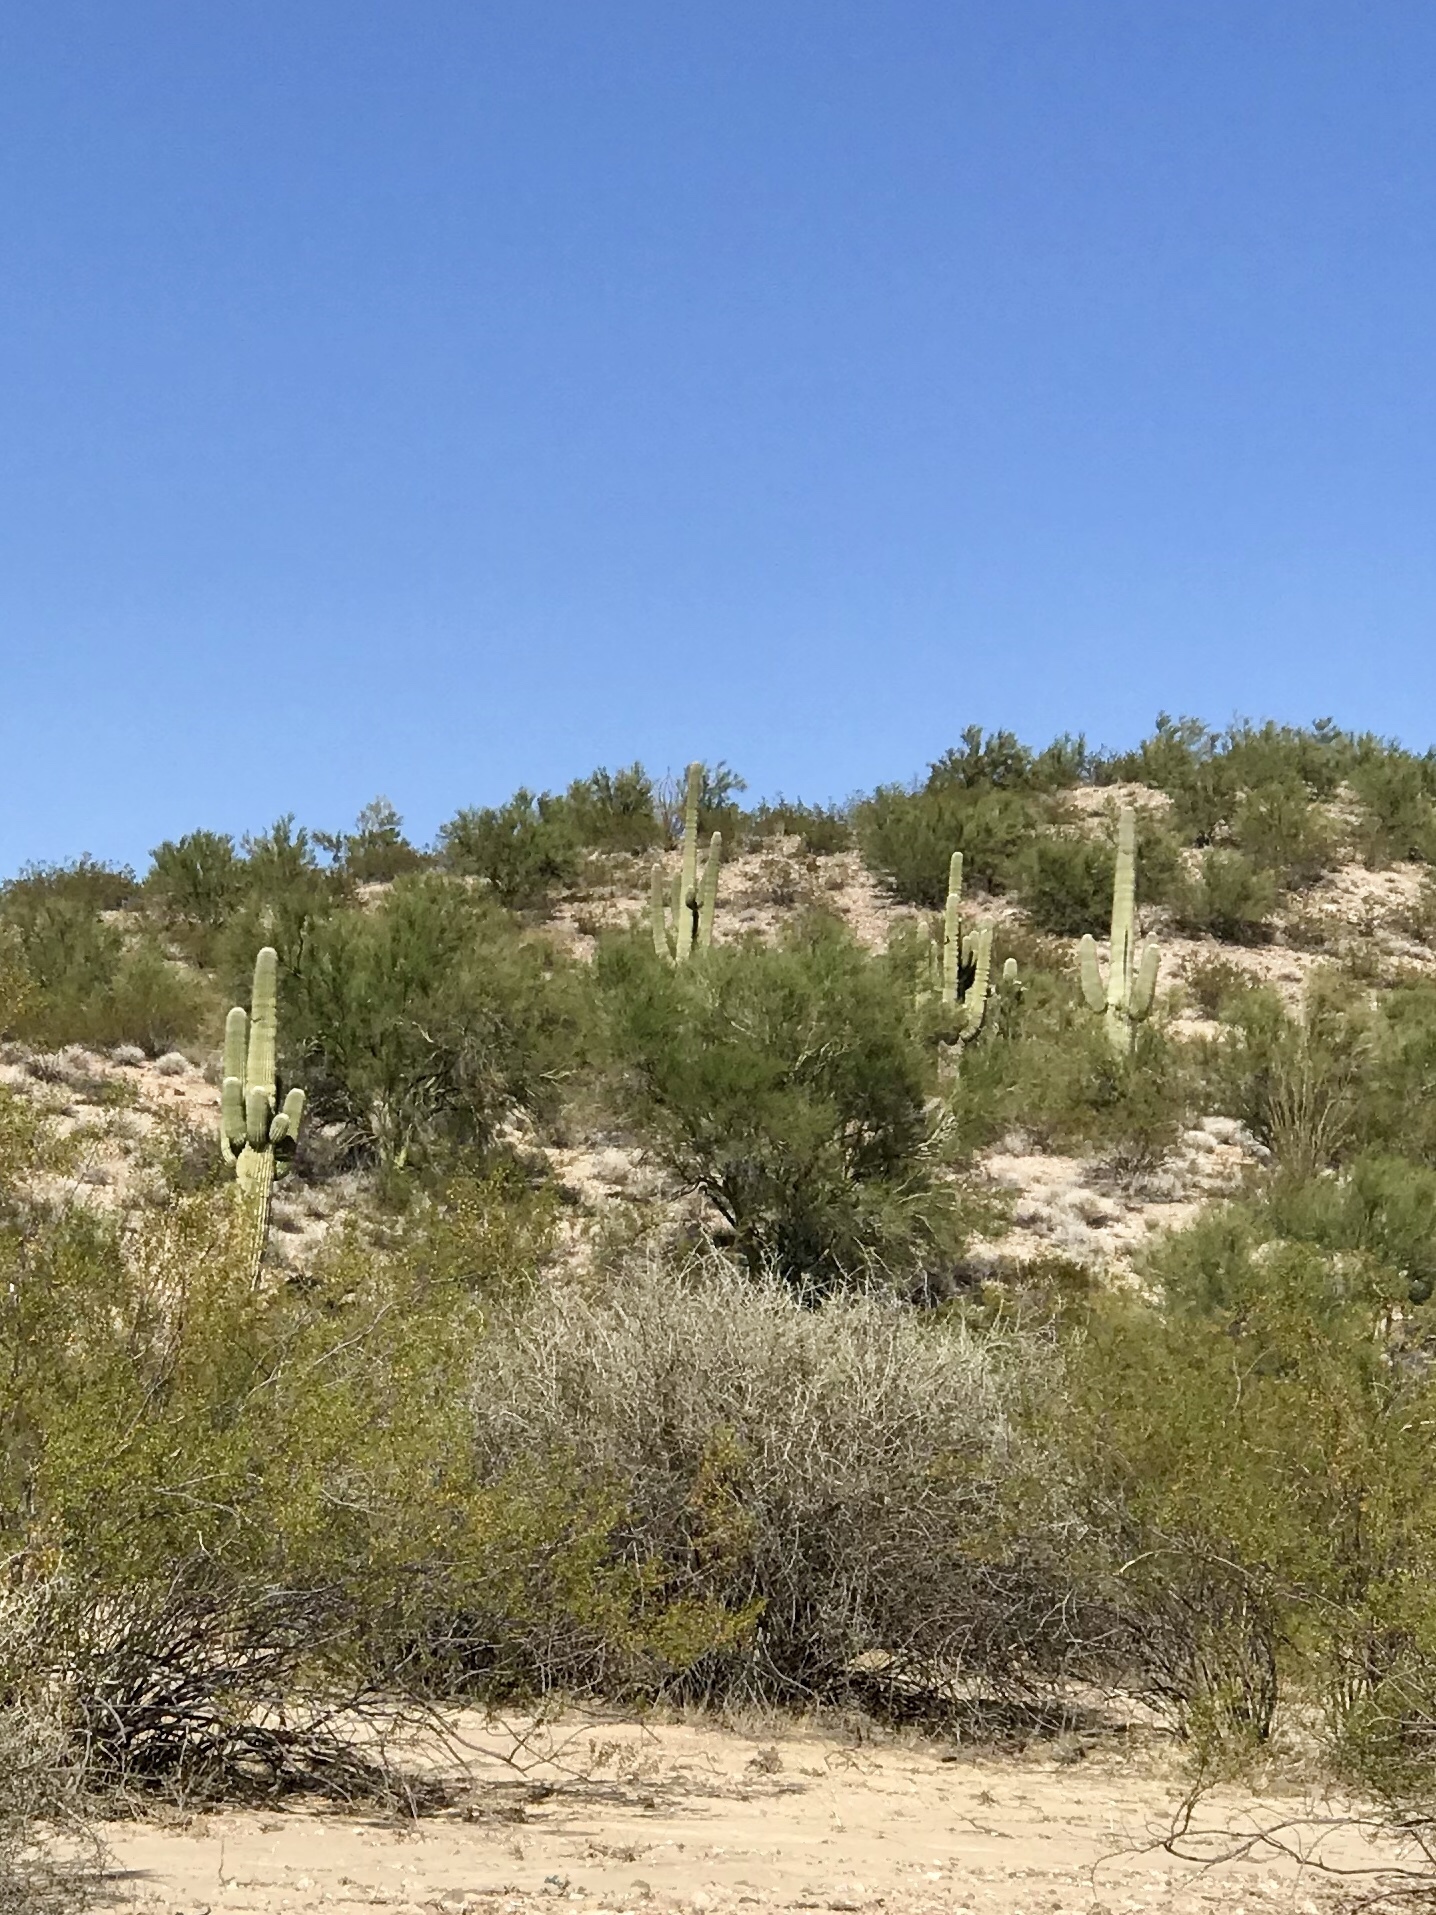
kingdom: Plantae
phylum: Tracheophyta
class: Magnoliopsida
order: Caryophyllales
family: Cactaceae
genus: Carnegiea
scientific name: Carnegiea gigantea
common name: Saguaro
